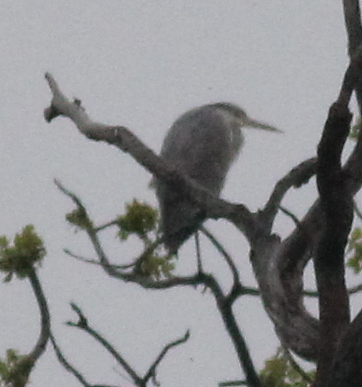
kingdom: Animalia
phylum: Chordata
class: Aves
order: Pelecaniformes
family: Ardeidae
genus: Ardea
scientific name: Ardea cinerea
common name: Grey heron
